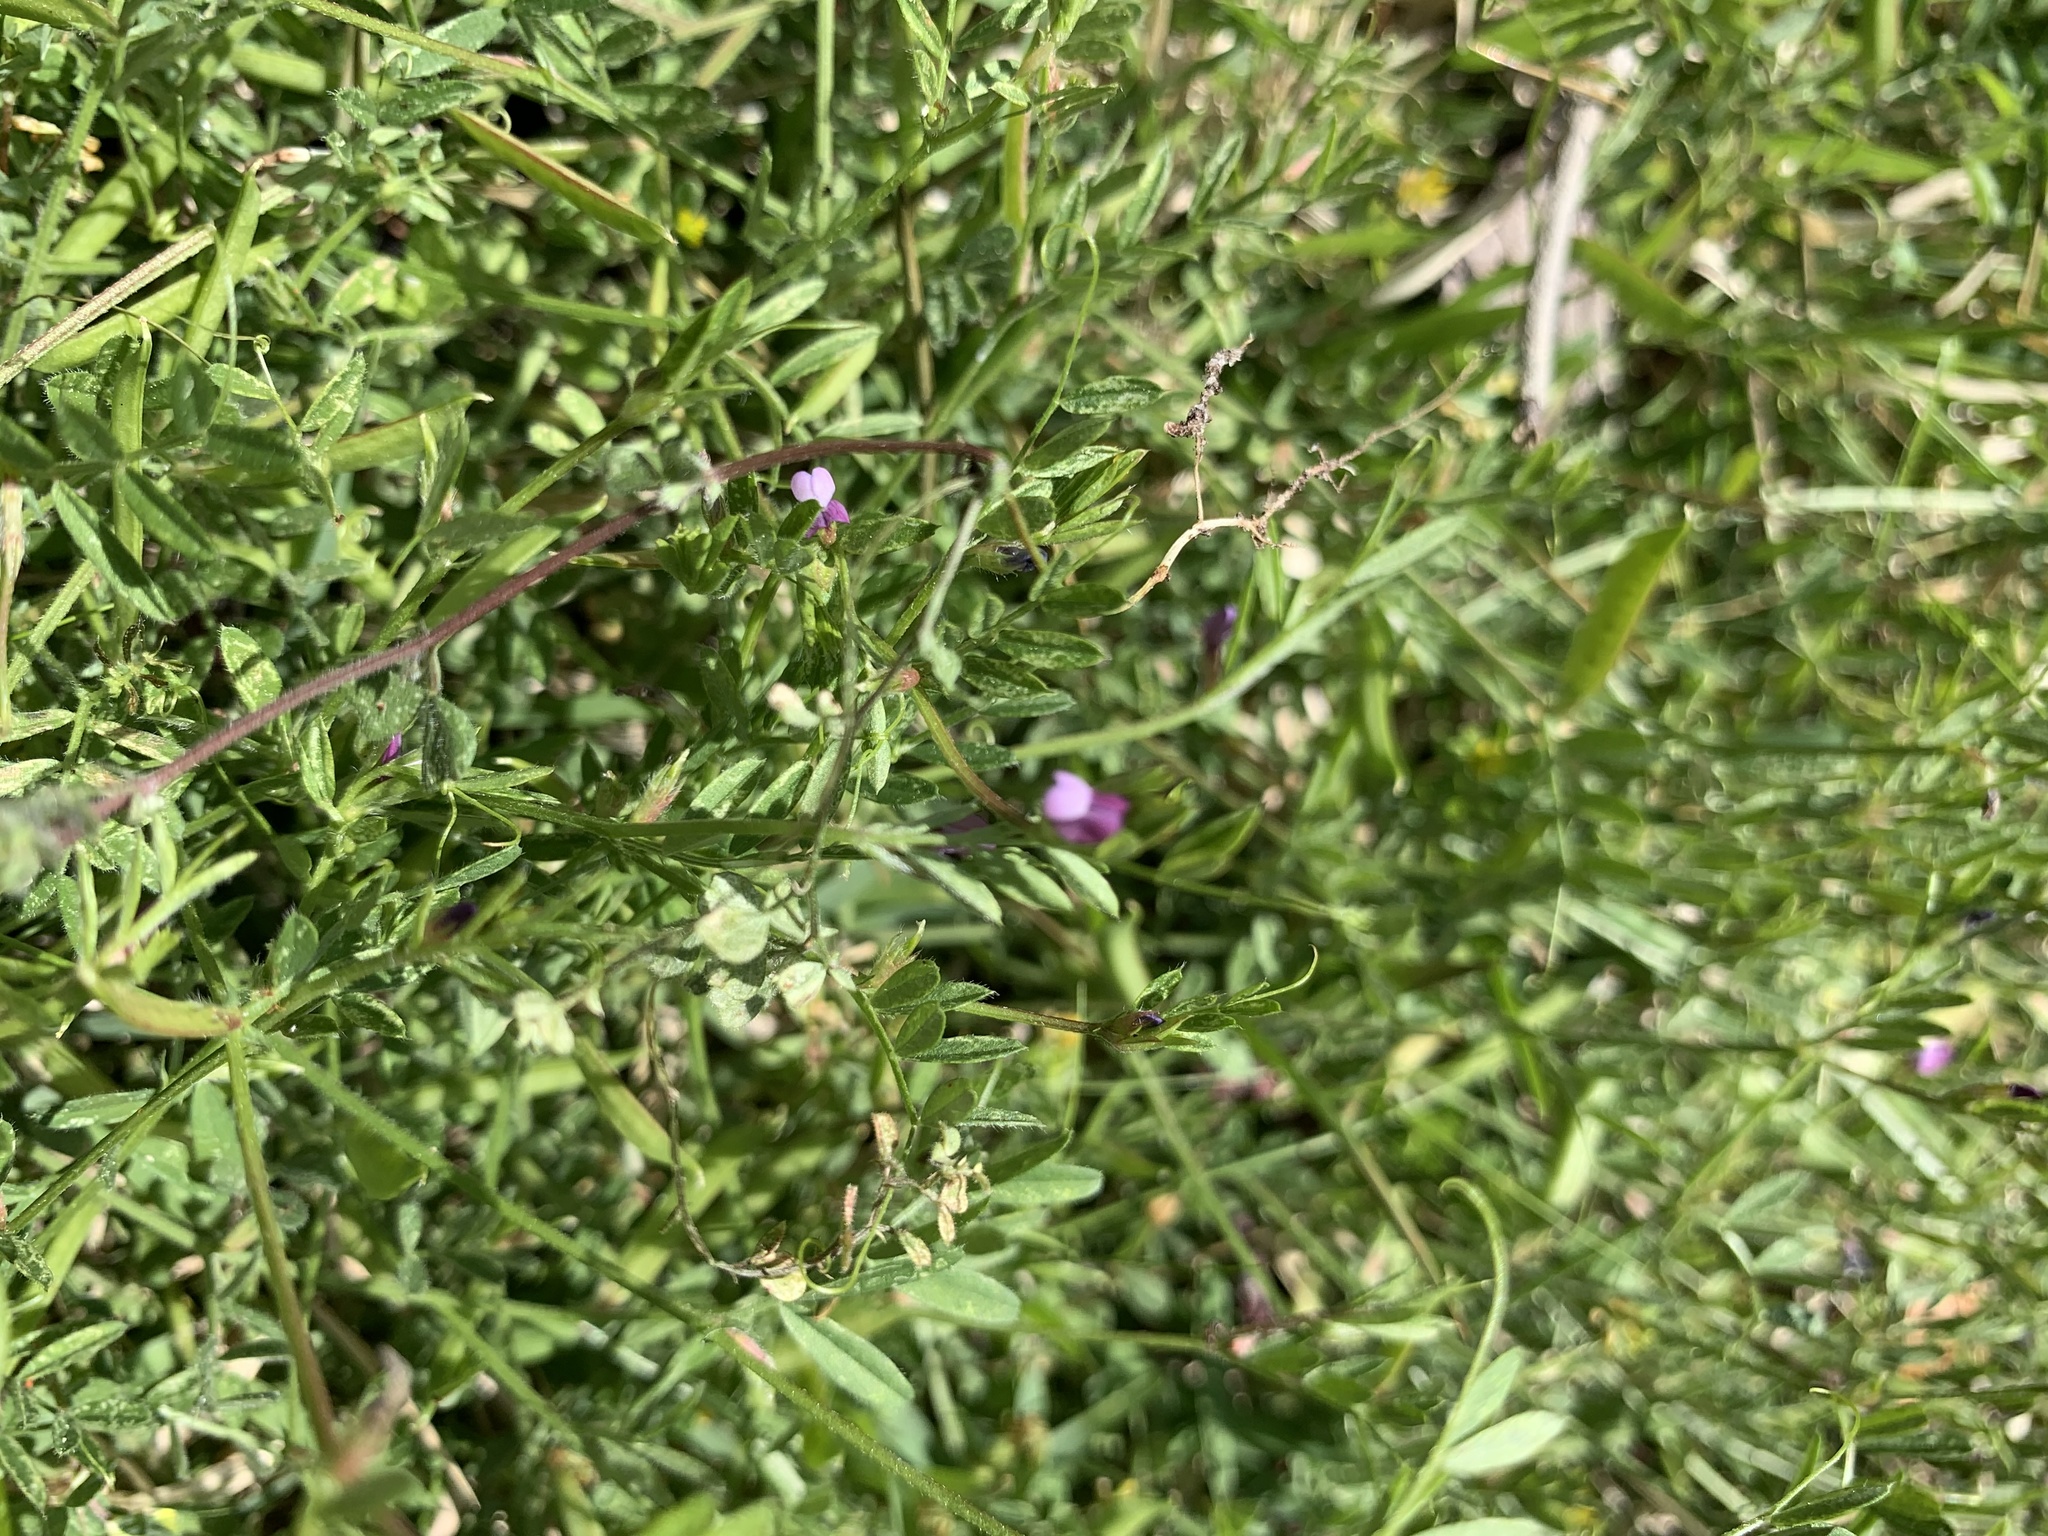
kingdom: Plantae
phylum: Tracheophyta
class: Magnoliopsida
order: Fabales
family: Fabaceae
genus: Vicia
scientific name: Vicia lathyroides
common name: Spring vetch
